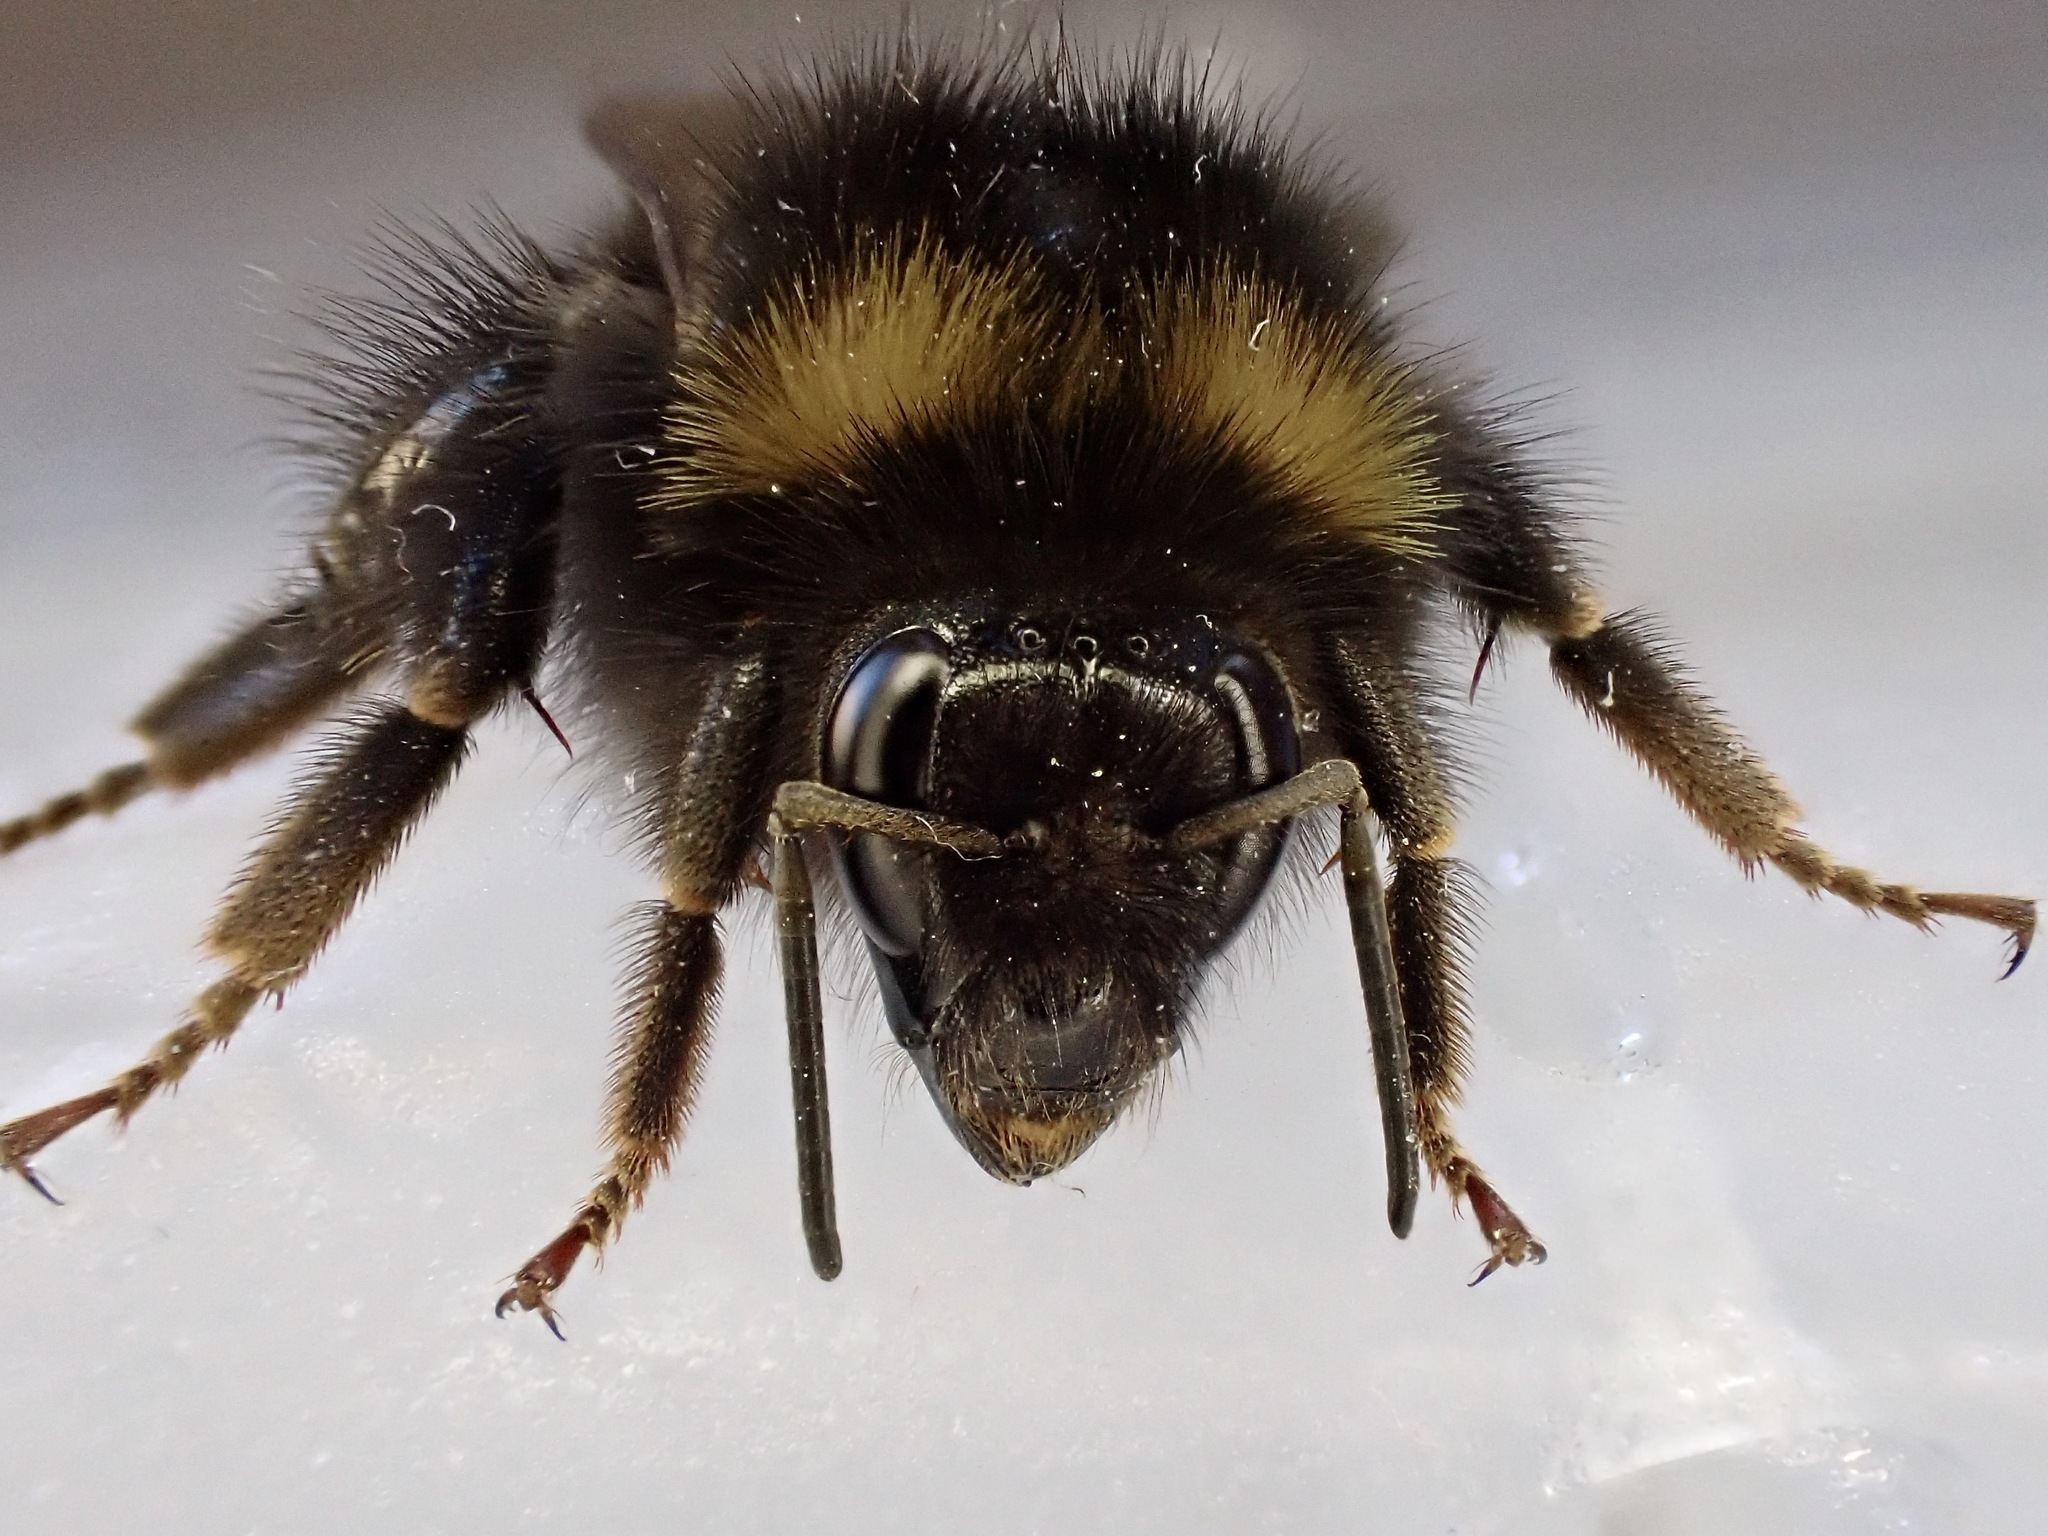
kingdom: Animalia
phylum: Arthropoda
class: Insecta
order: Hymenoptera
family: Apidae
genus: Bombus
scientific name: Bombus pratorum
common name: Early humble-bee
